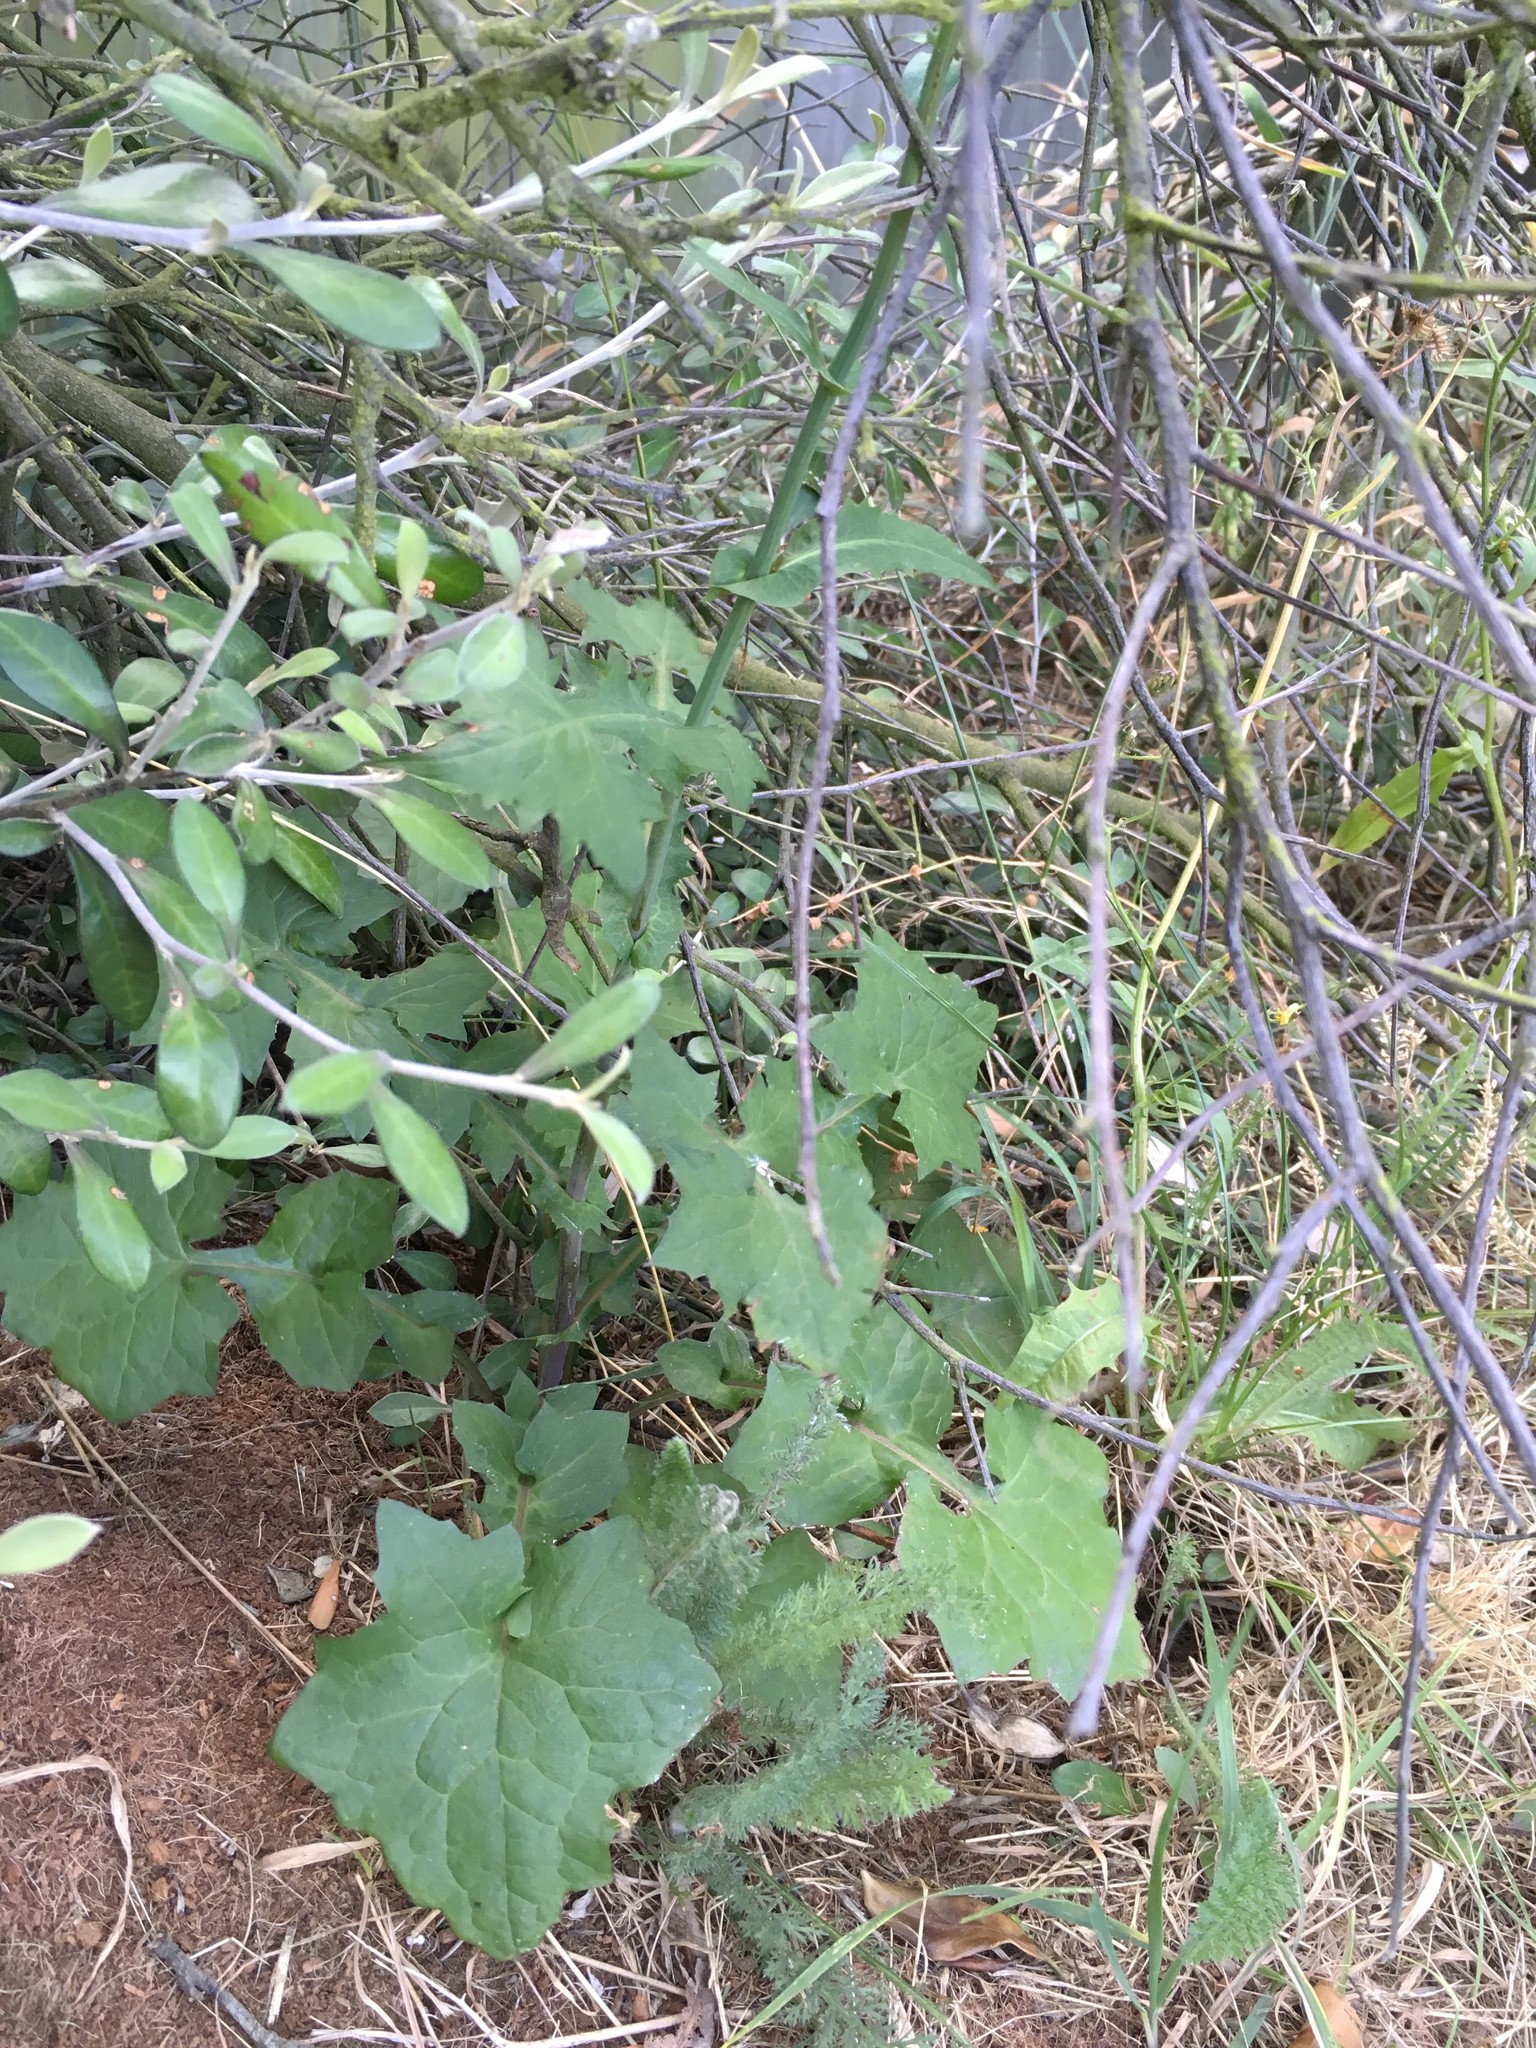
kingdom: Plantae
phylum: Tracheophyta
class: Magnoliopsida
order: Asterales
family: Asteraceae
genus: Mycelis
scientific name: Mycelis muralis
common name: Wall lettuce
